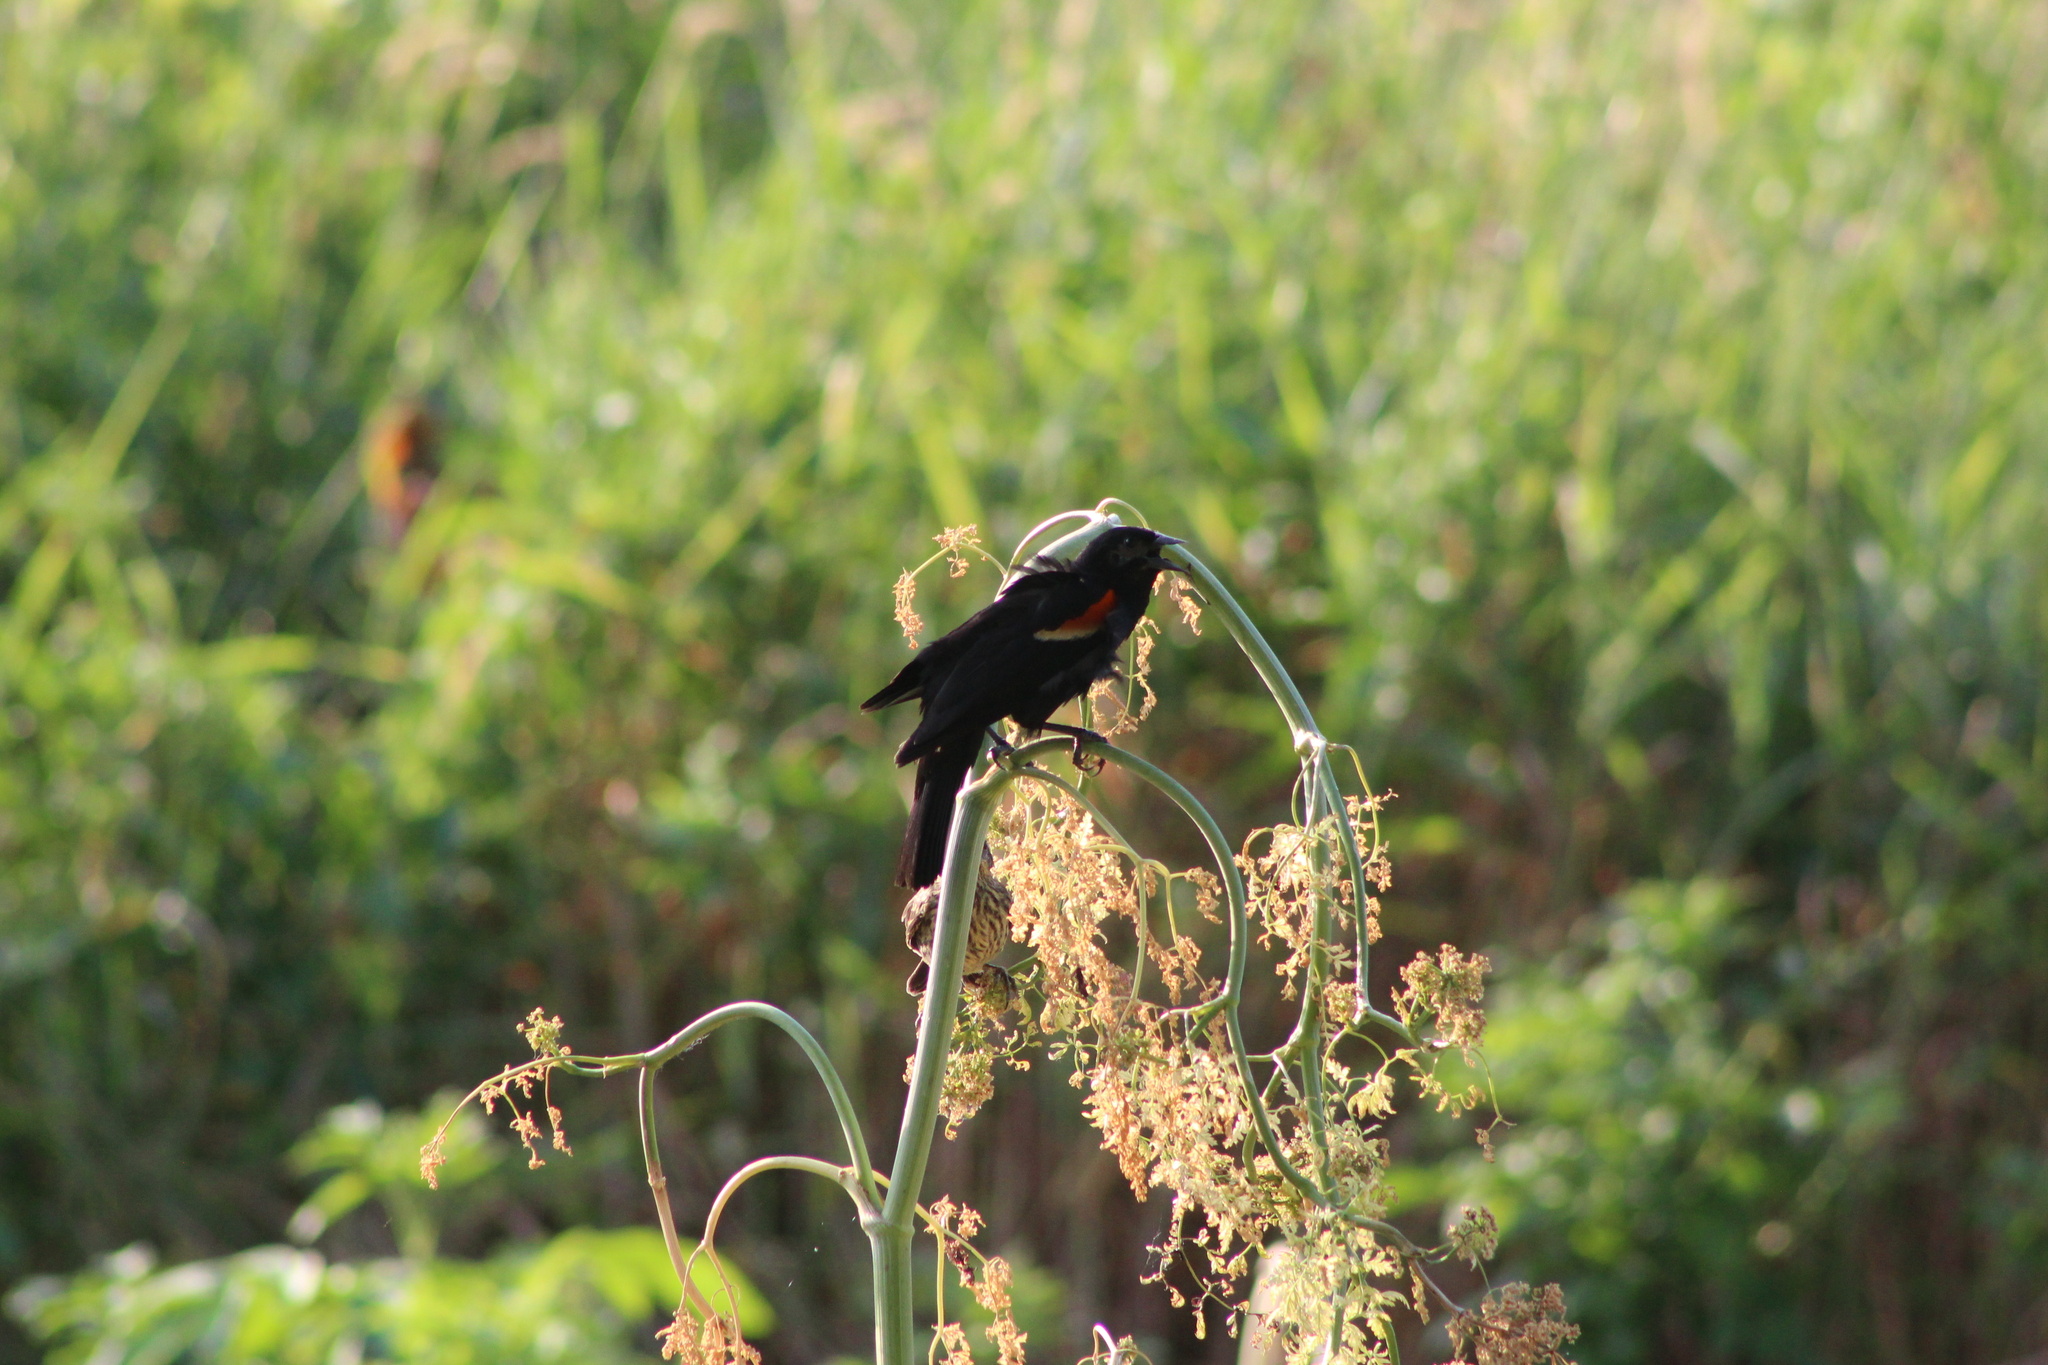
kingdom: Animalia
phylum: Chordata
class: Aves
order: Passeriformes
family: Icteridae
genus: Agelaius
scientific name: Agelaius phoeniceus
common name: Red-winged blackbird
